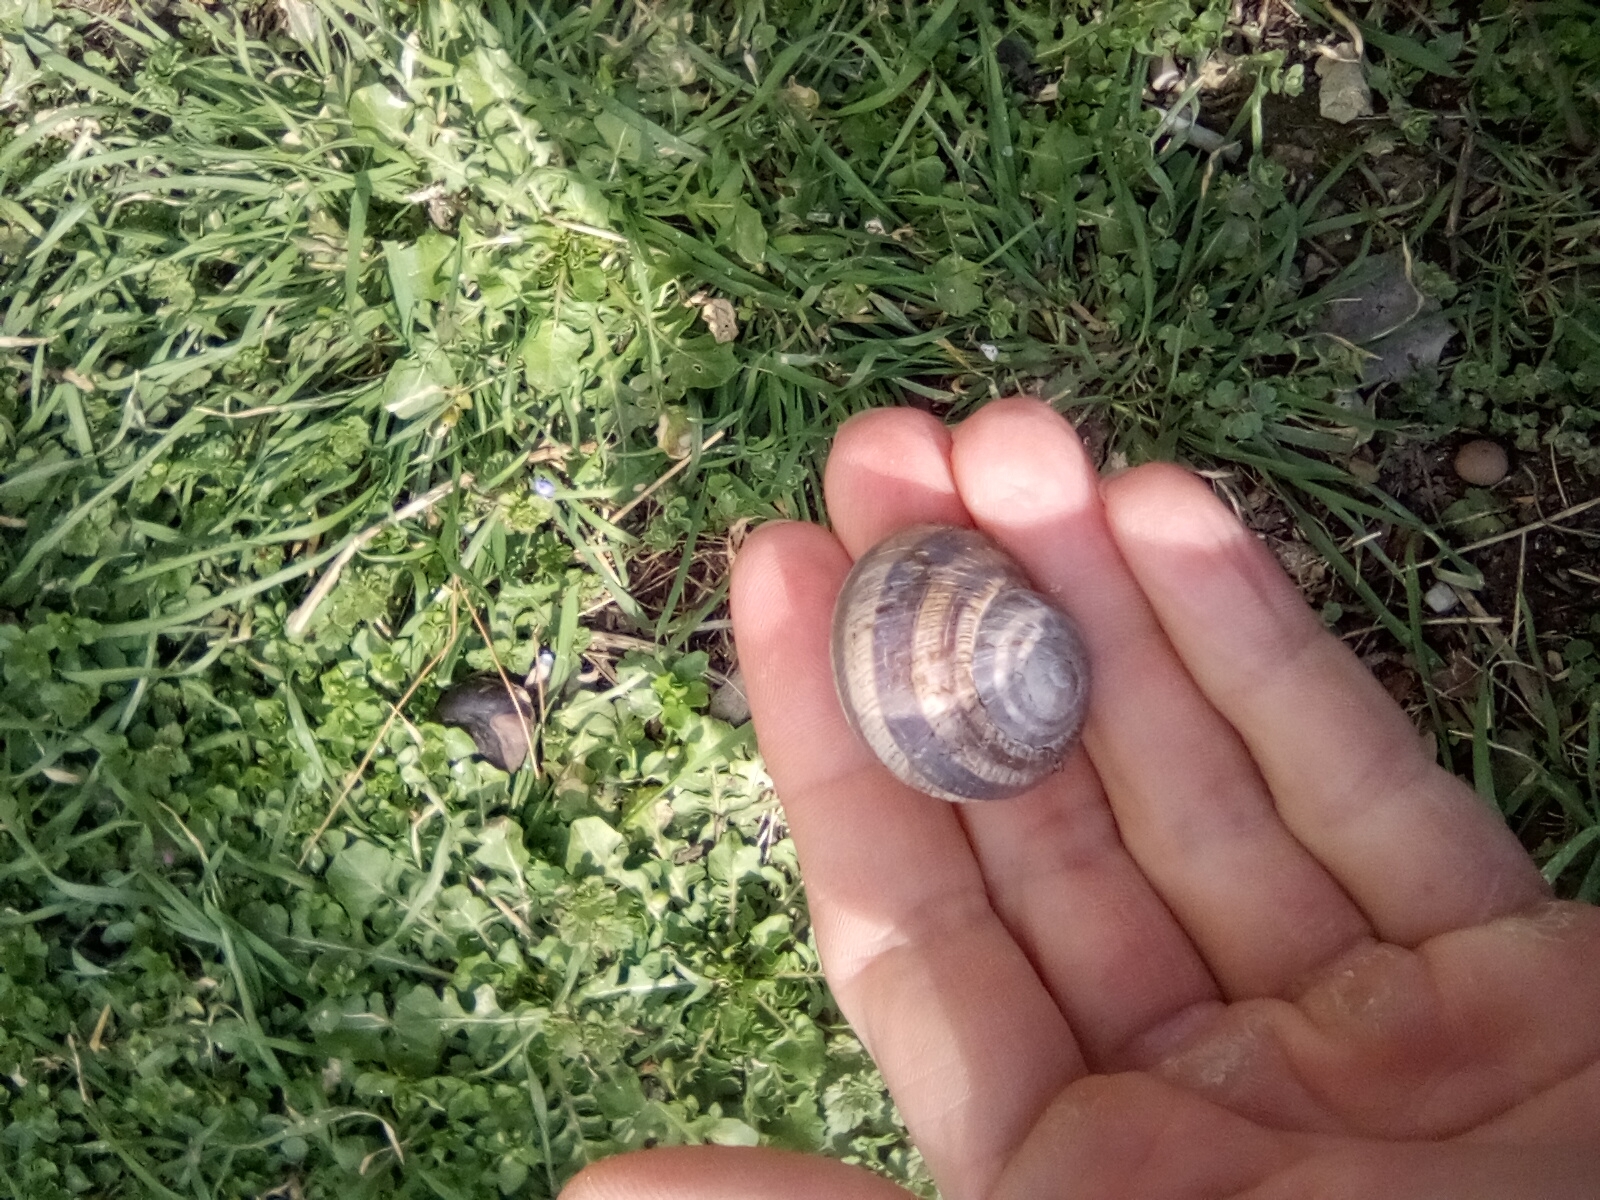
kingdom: Animalia
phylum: Mollusca
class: Gastropoda
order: Stylommatophora
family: Helicidae
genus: Helix
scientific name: Helix albescens
